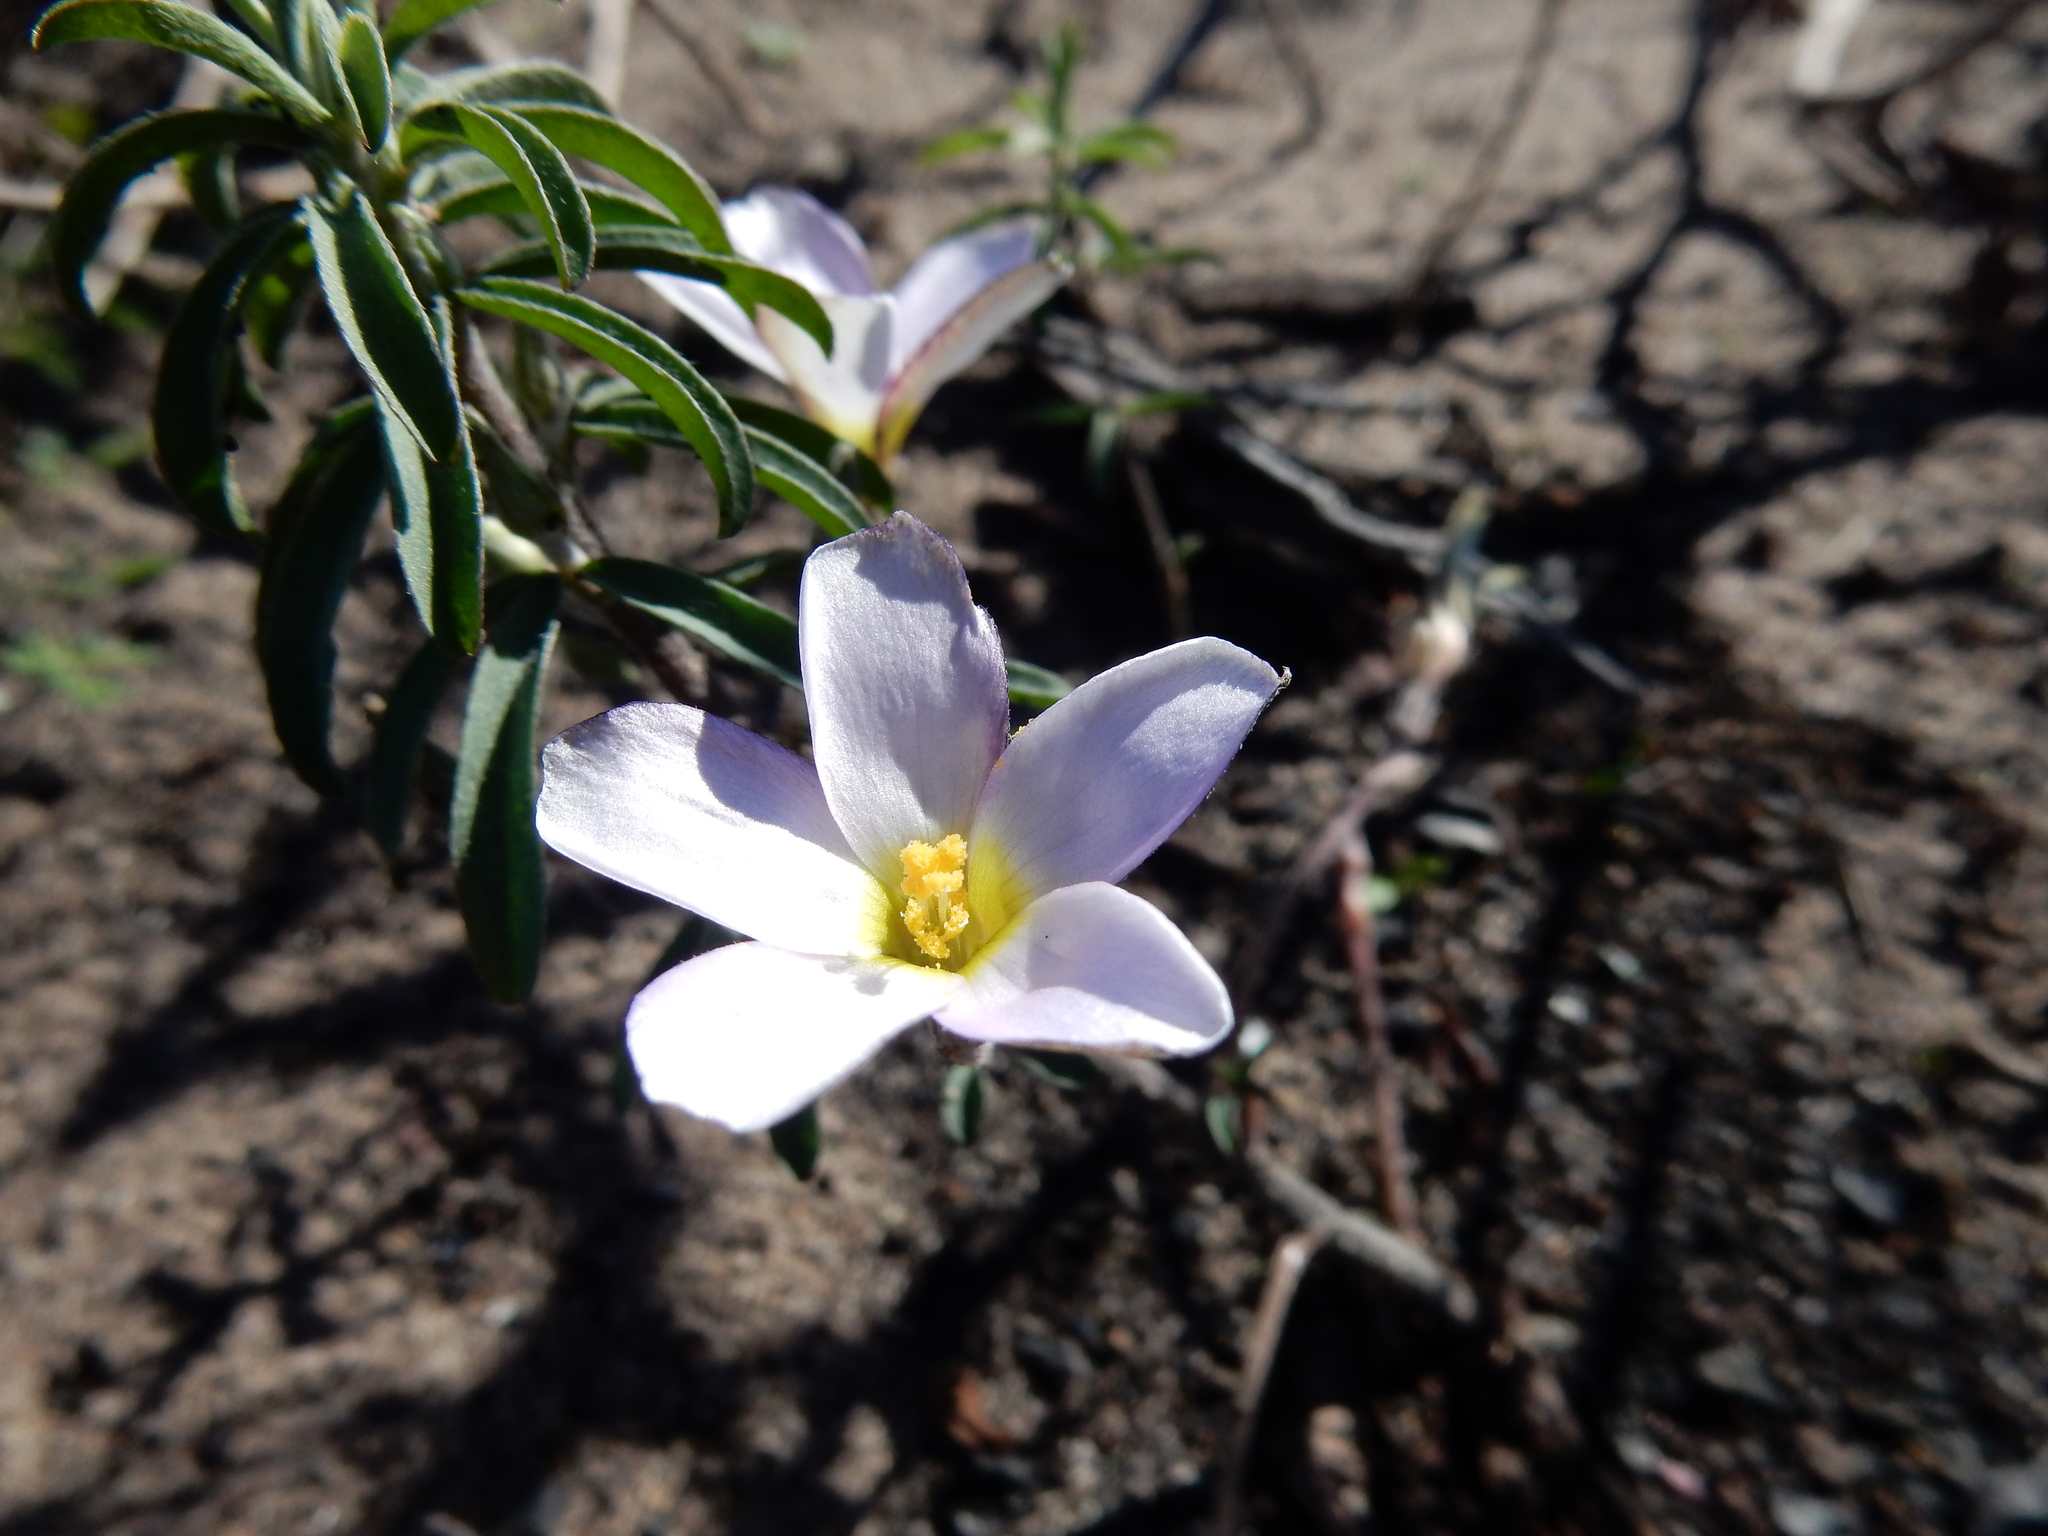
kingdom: Plantae
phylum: Tracheophyta
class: Magnoliopsida
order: Oxalidales
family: Oxalidaceae
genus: Oxalis
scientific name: Oxalis hirta
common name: Tropical woodsorrel
